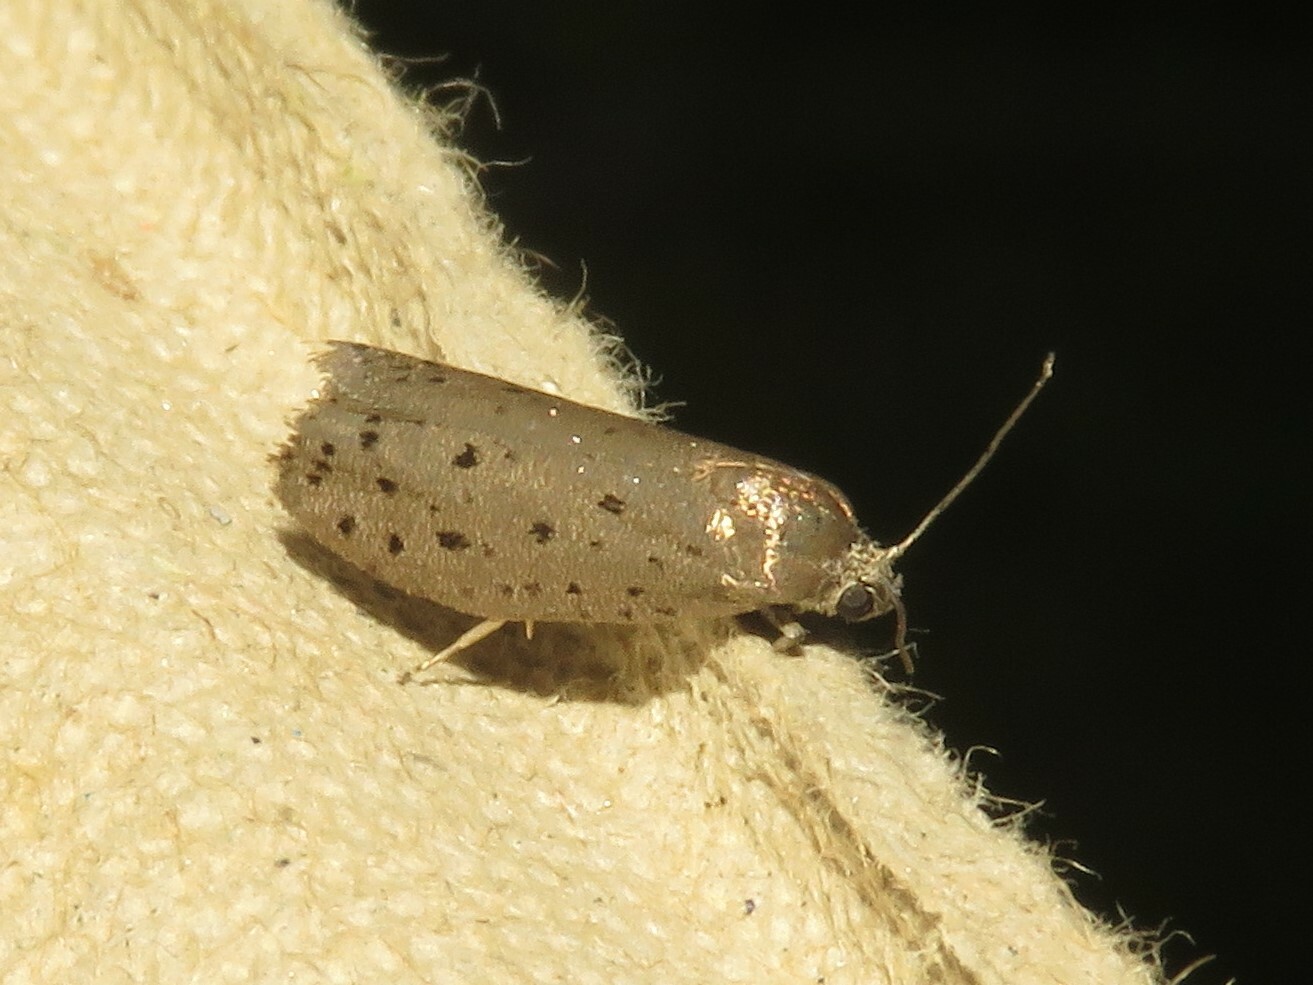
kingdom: Animalia
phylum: Arthropoda
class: Insecta
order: Lepidoptera
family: Galacticidae
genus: Homadaula
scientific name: Homadaula anisocentra
